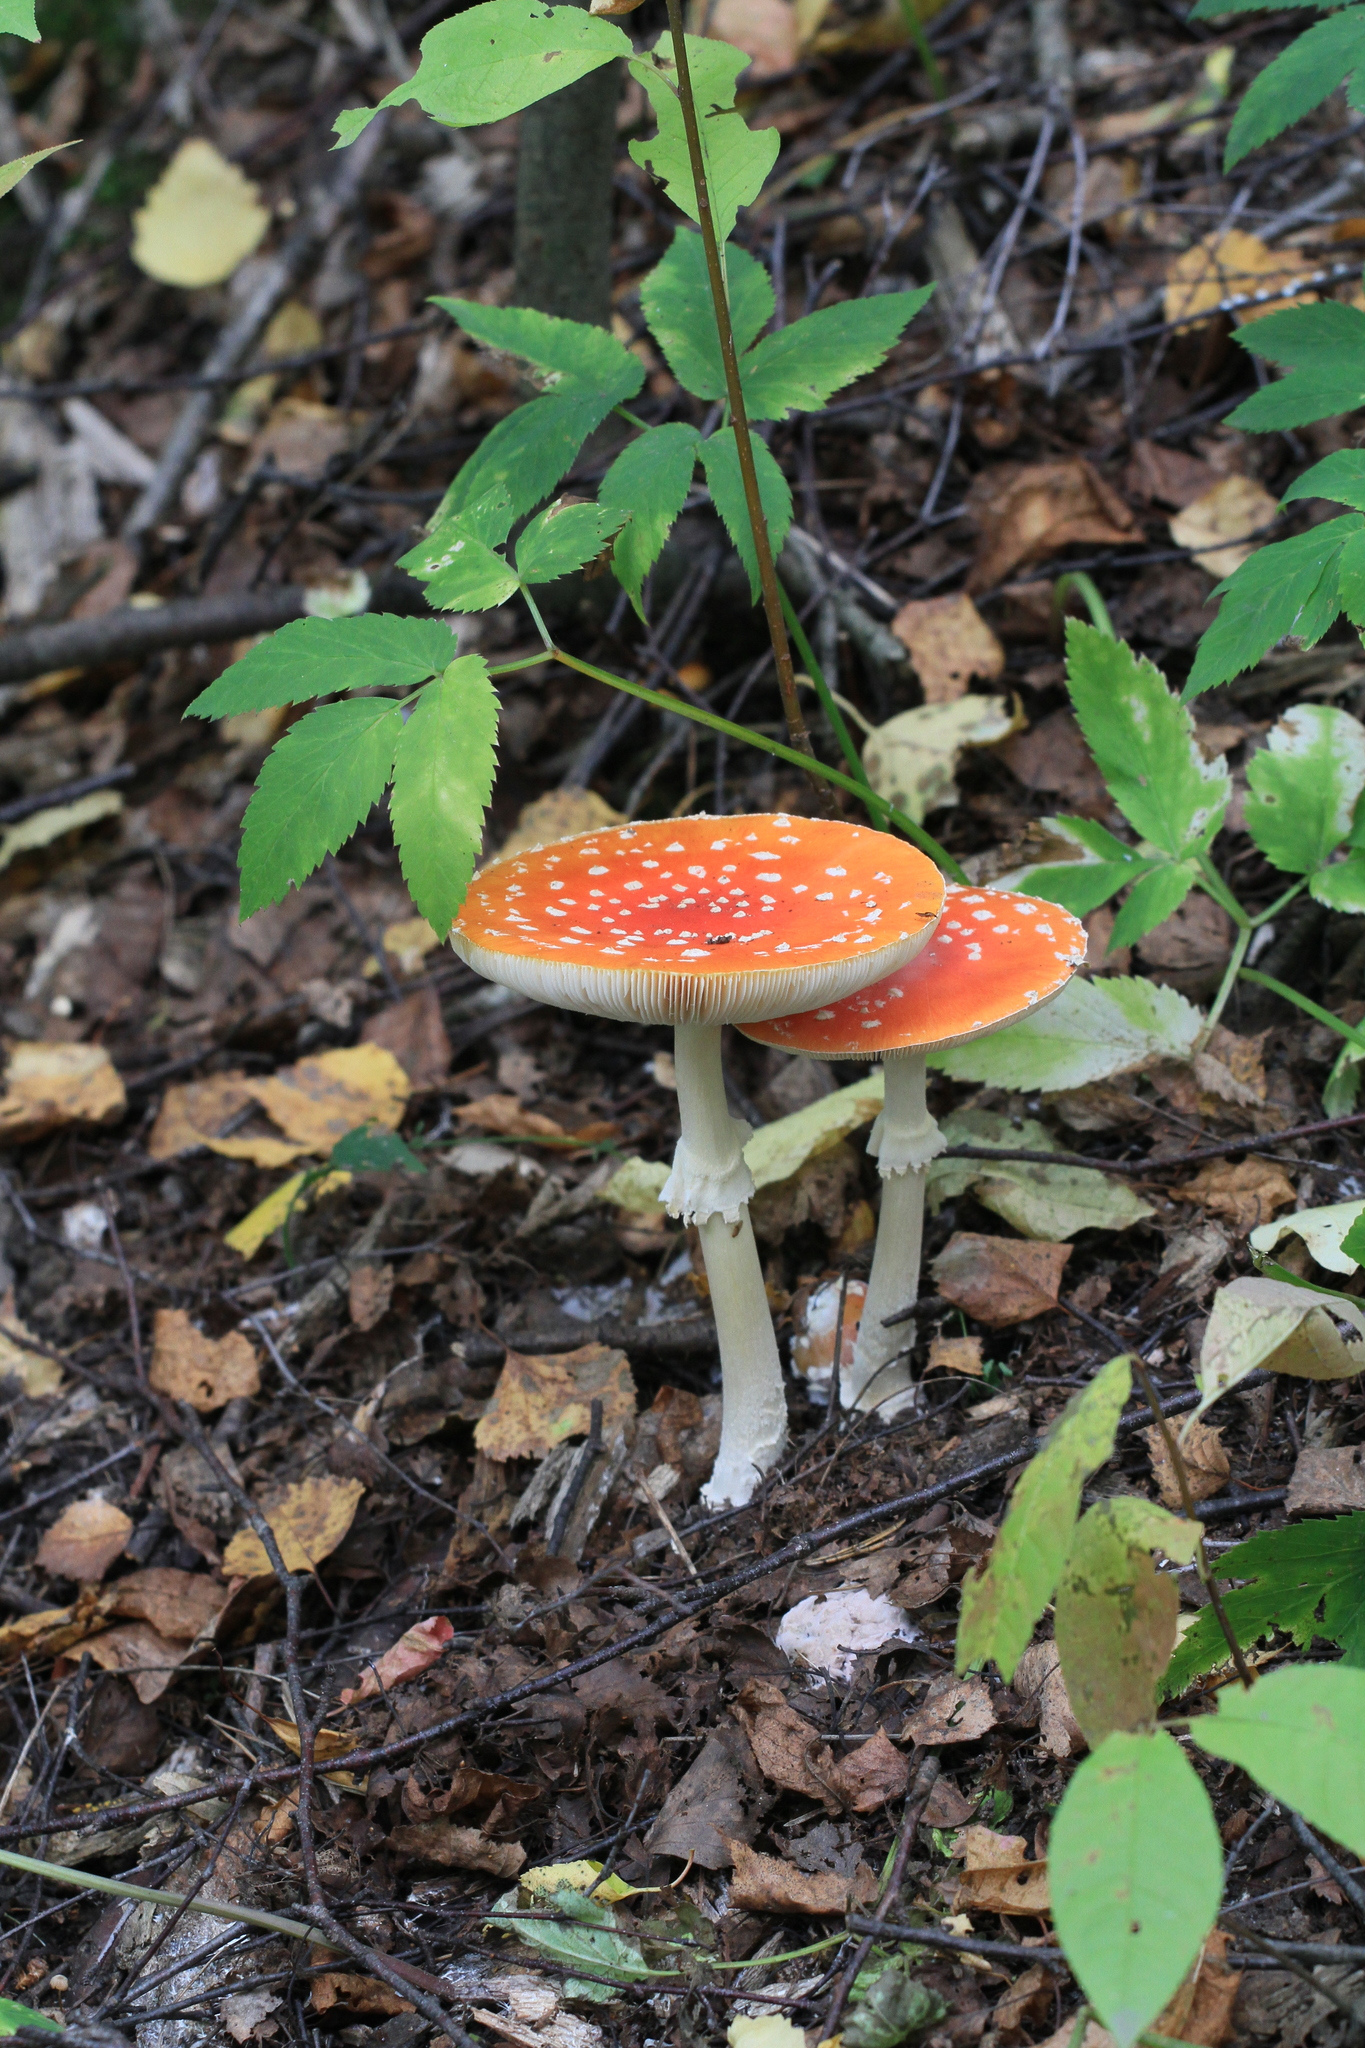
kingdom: Fungi
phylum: Basidiomycota
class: Agaricomycetes
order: Agaricales
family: Amanitaceae
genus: Amanita
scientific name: Amanita muscaria
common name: Fly agaric
